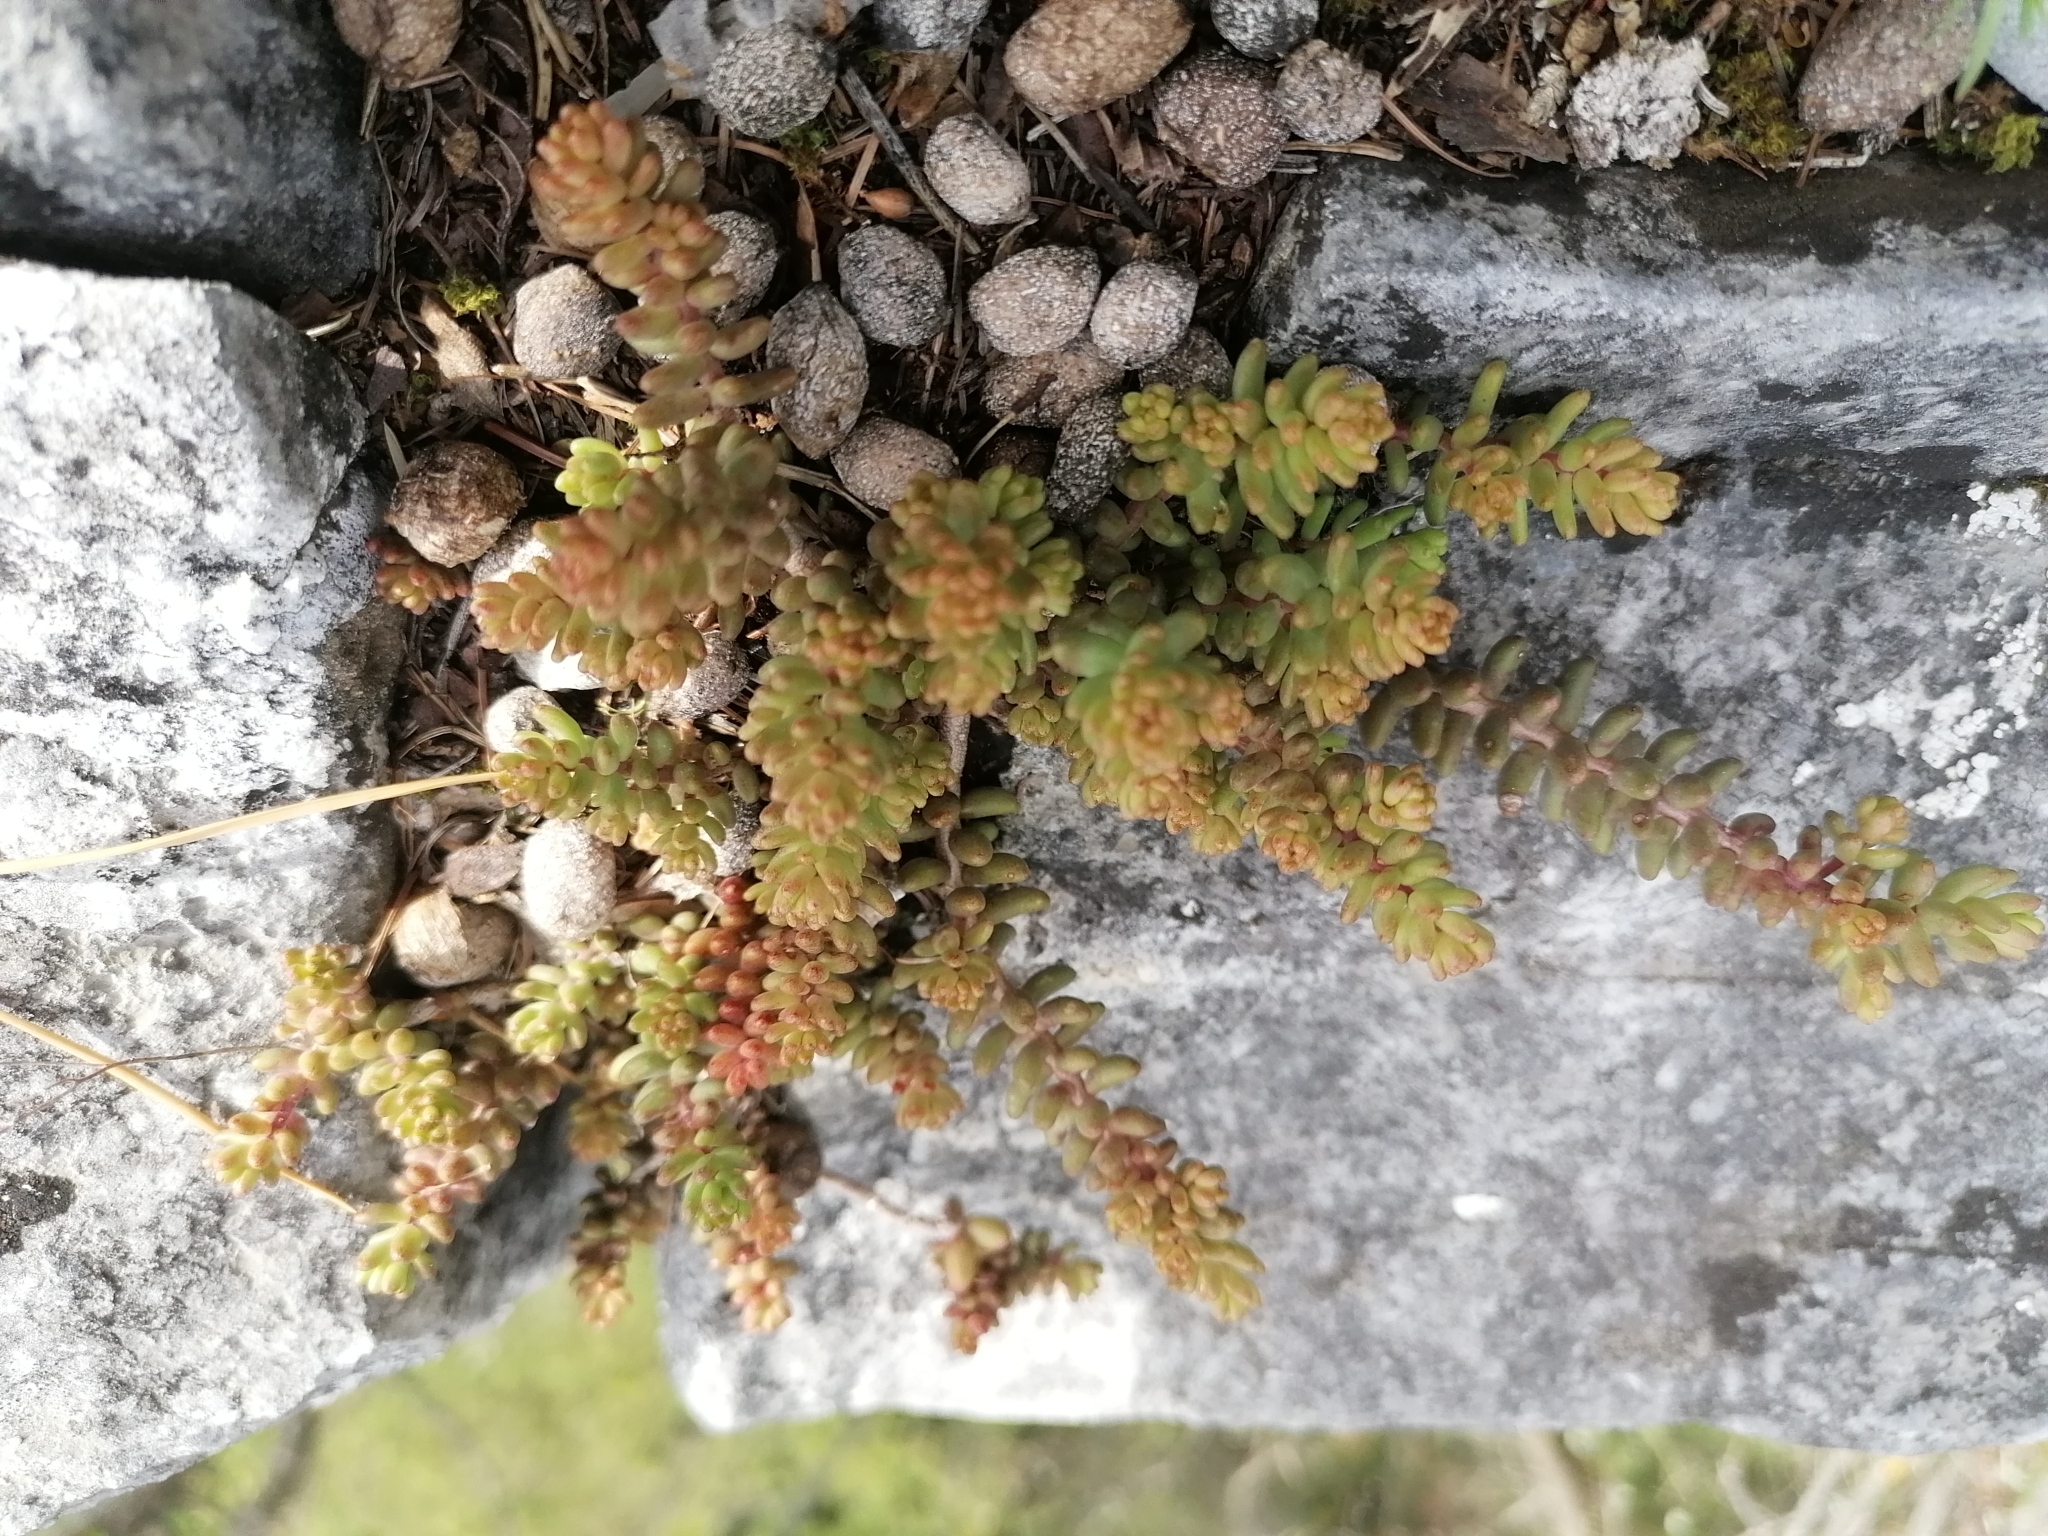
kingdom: Plantae
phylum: Tracheophyta
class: Magnoliopsida
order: Saxifragales
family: Crassulaceae
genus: Sedum
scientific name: Sedum album
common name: White stonecrop
